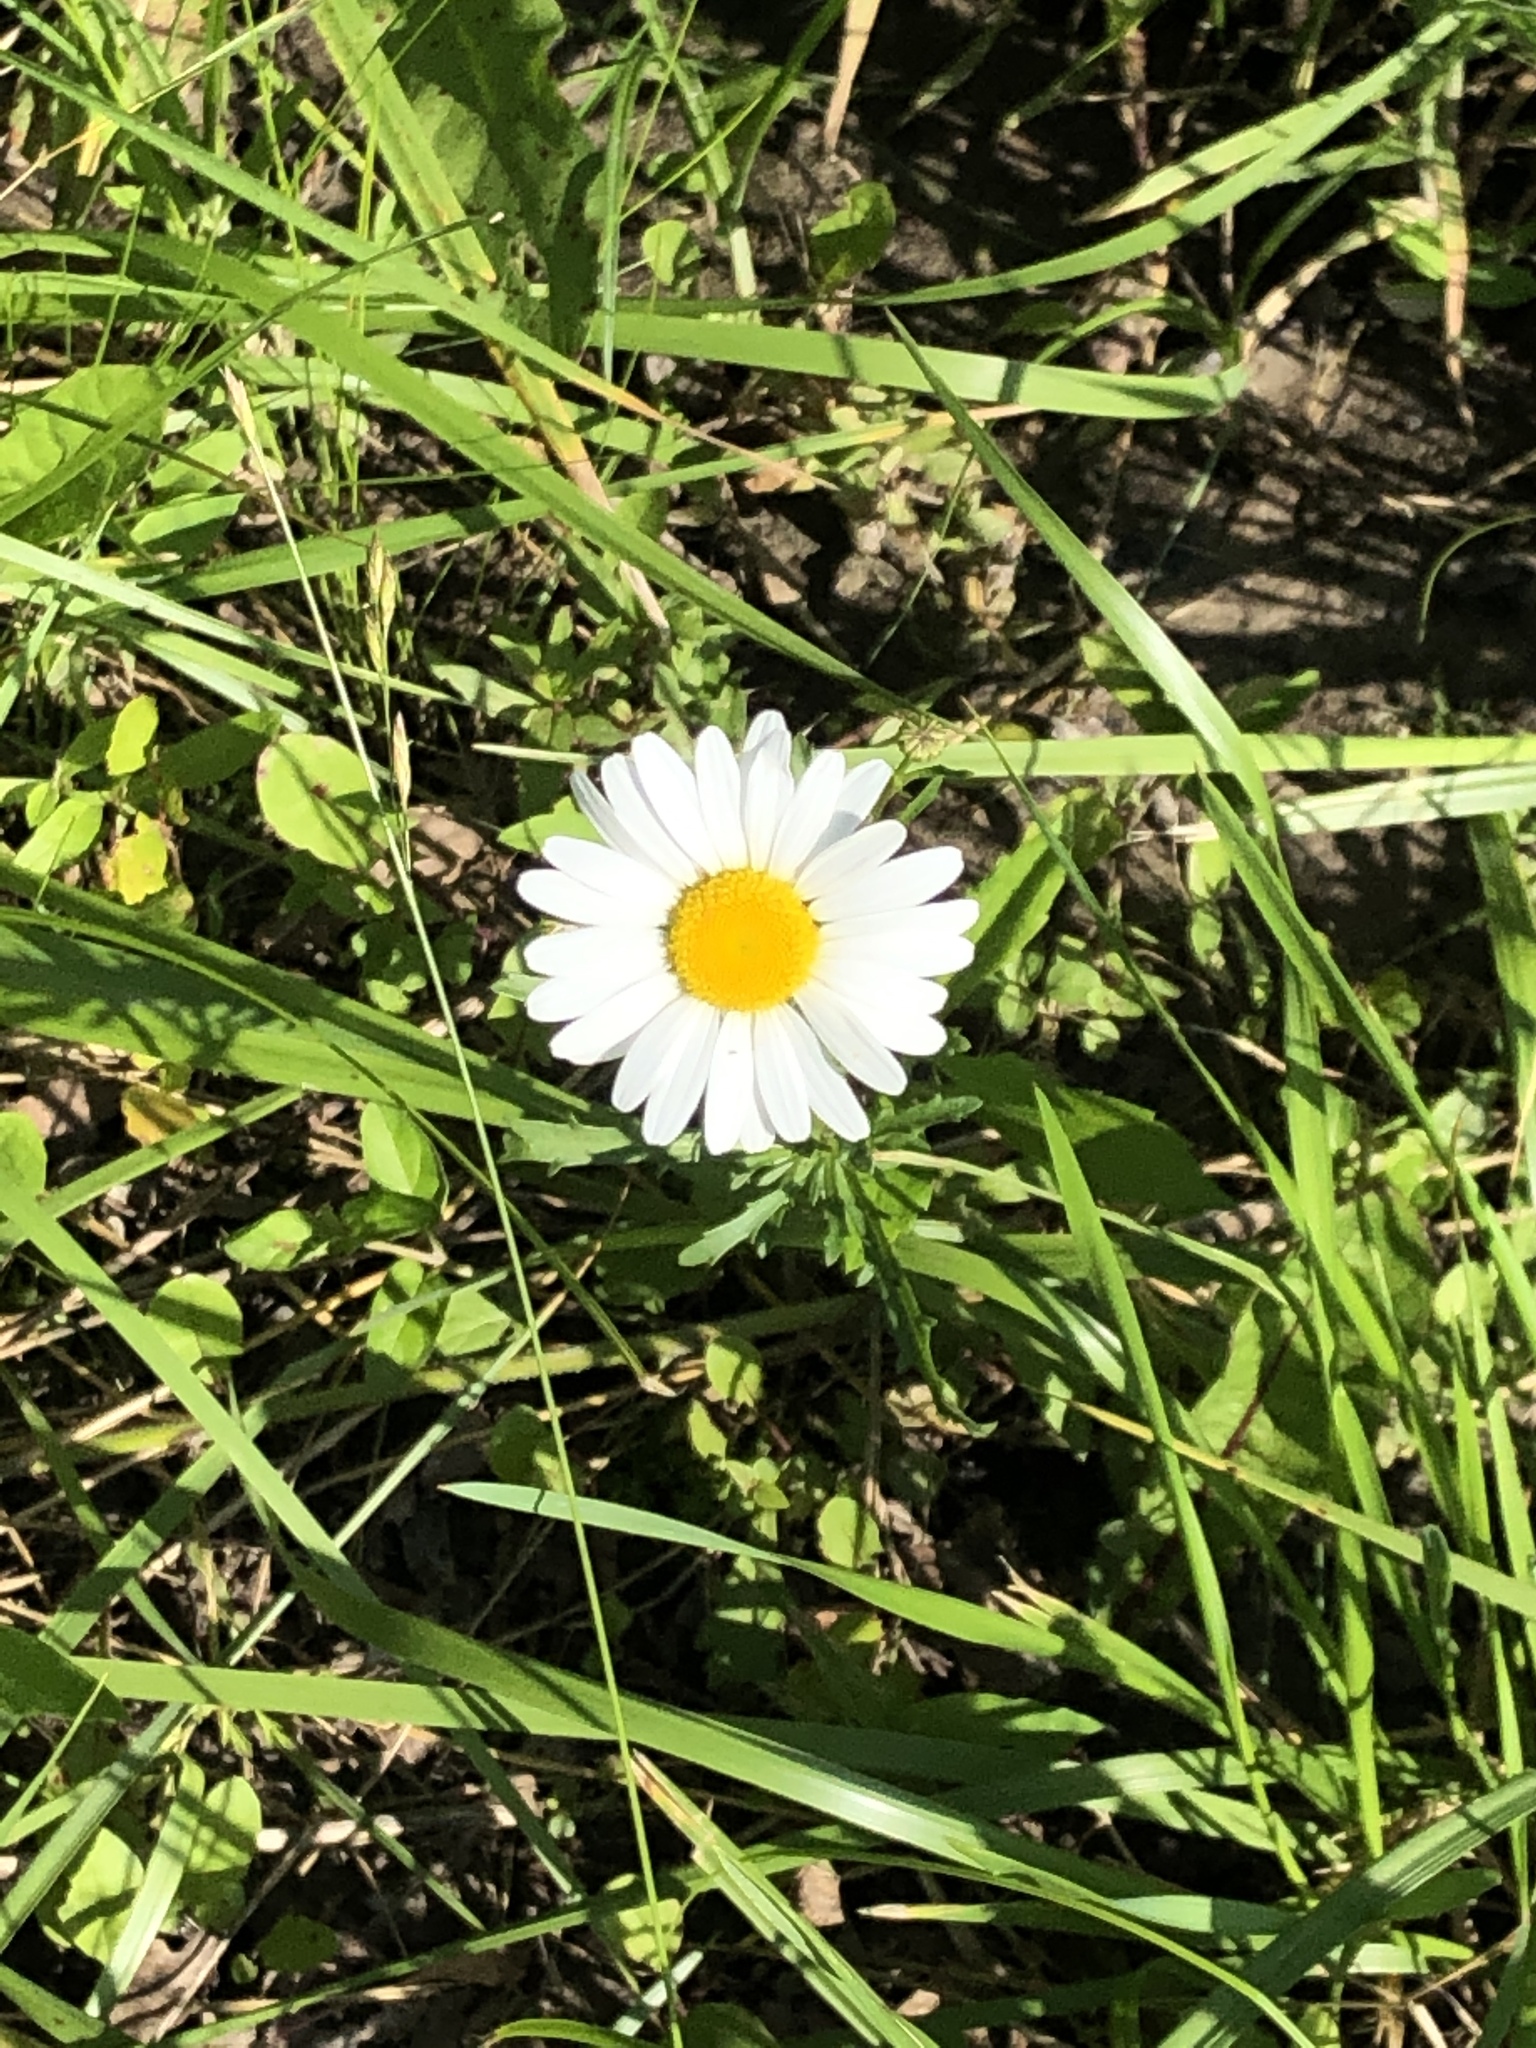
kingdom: Plantae
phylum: Tracheophyta
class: Magnoliopsida
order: Asterales
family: Asteraceae
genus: Bellis
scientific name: Bellis perennis
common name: Lawndaisy
